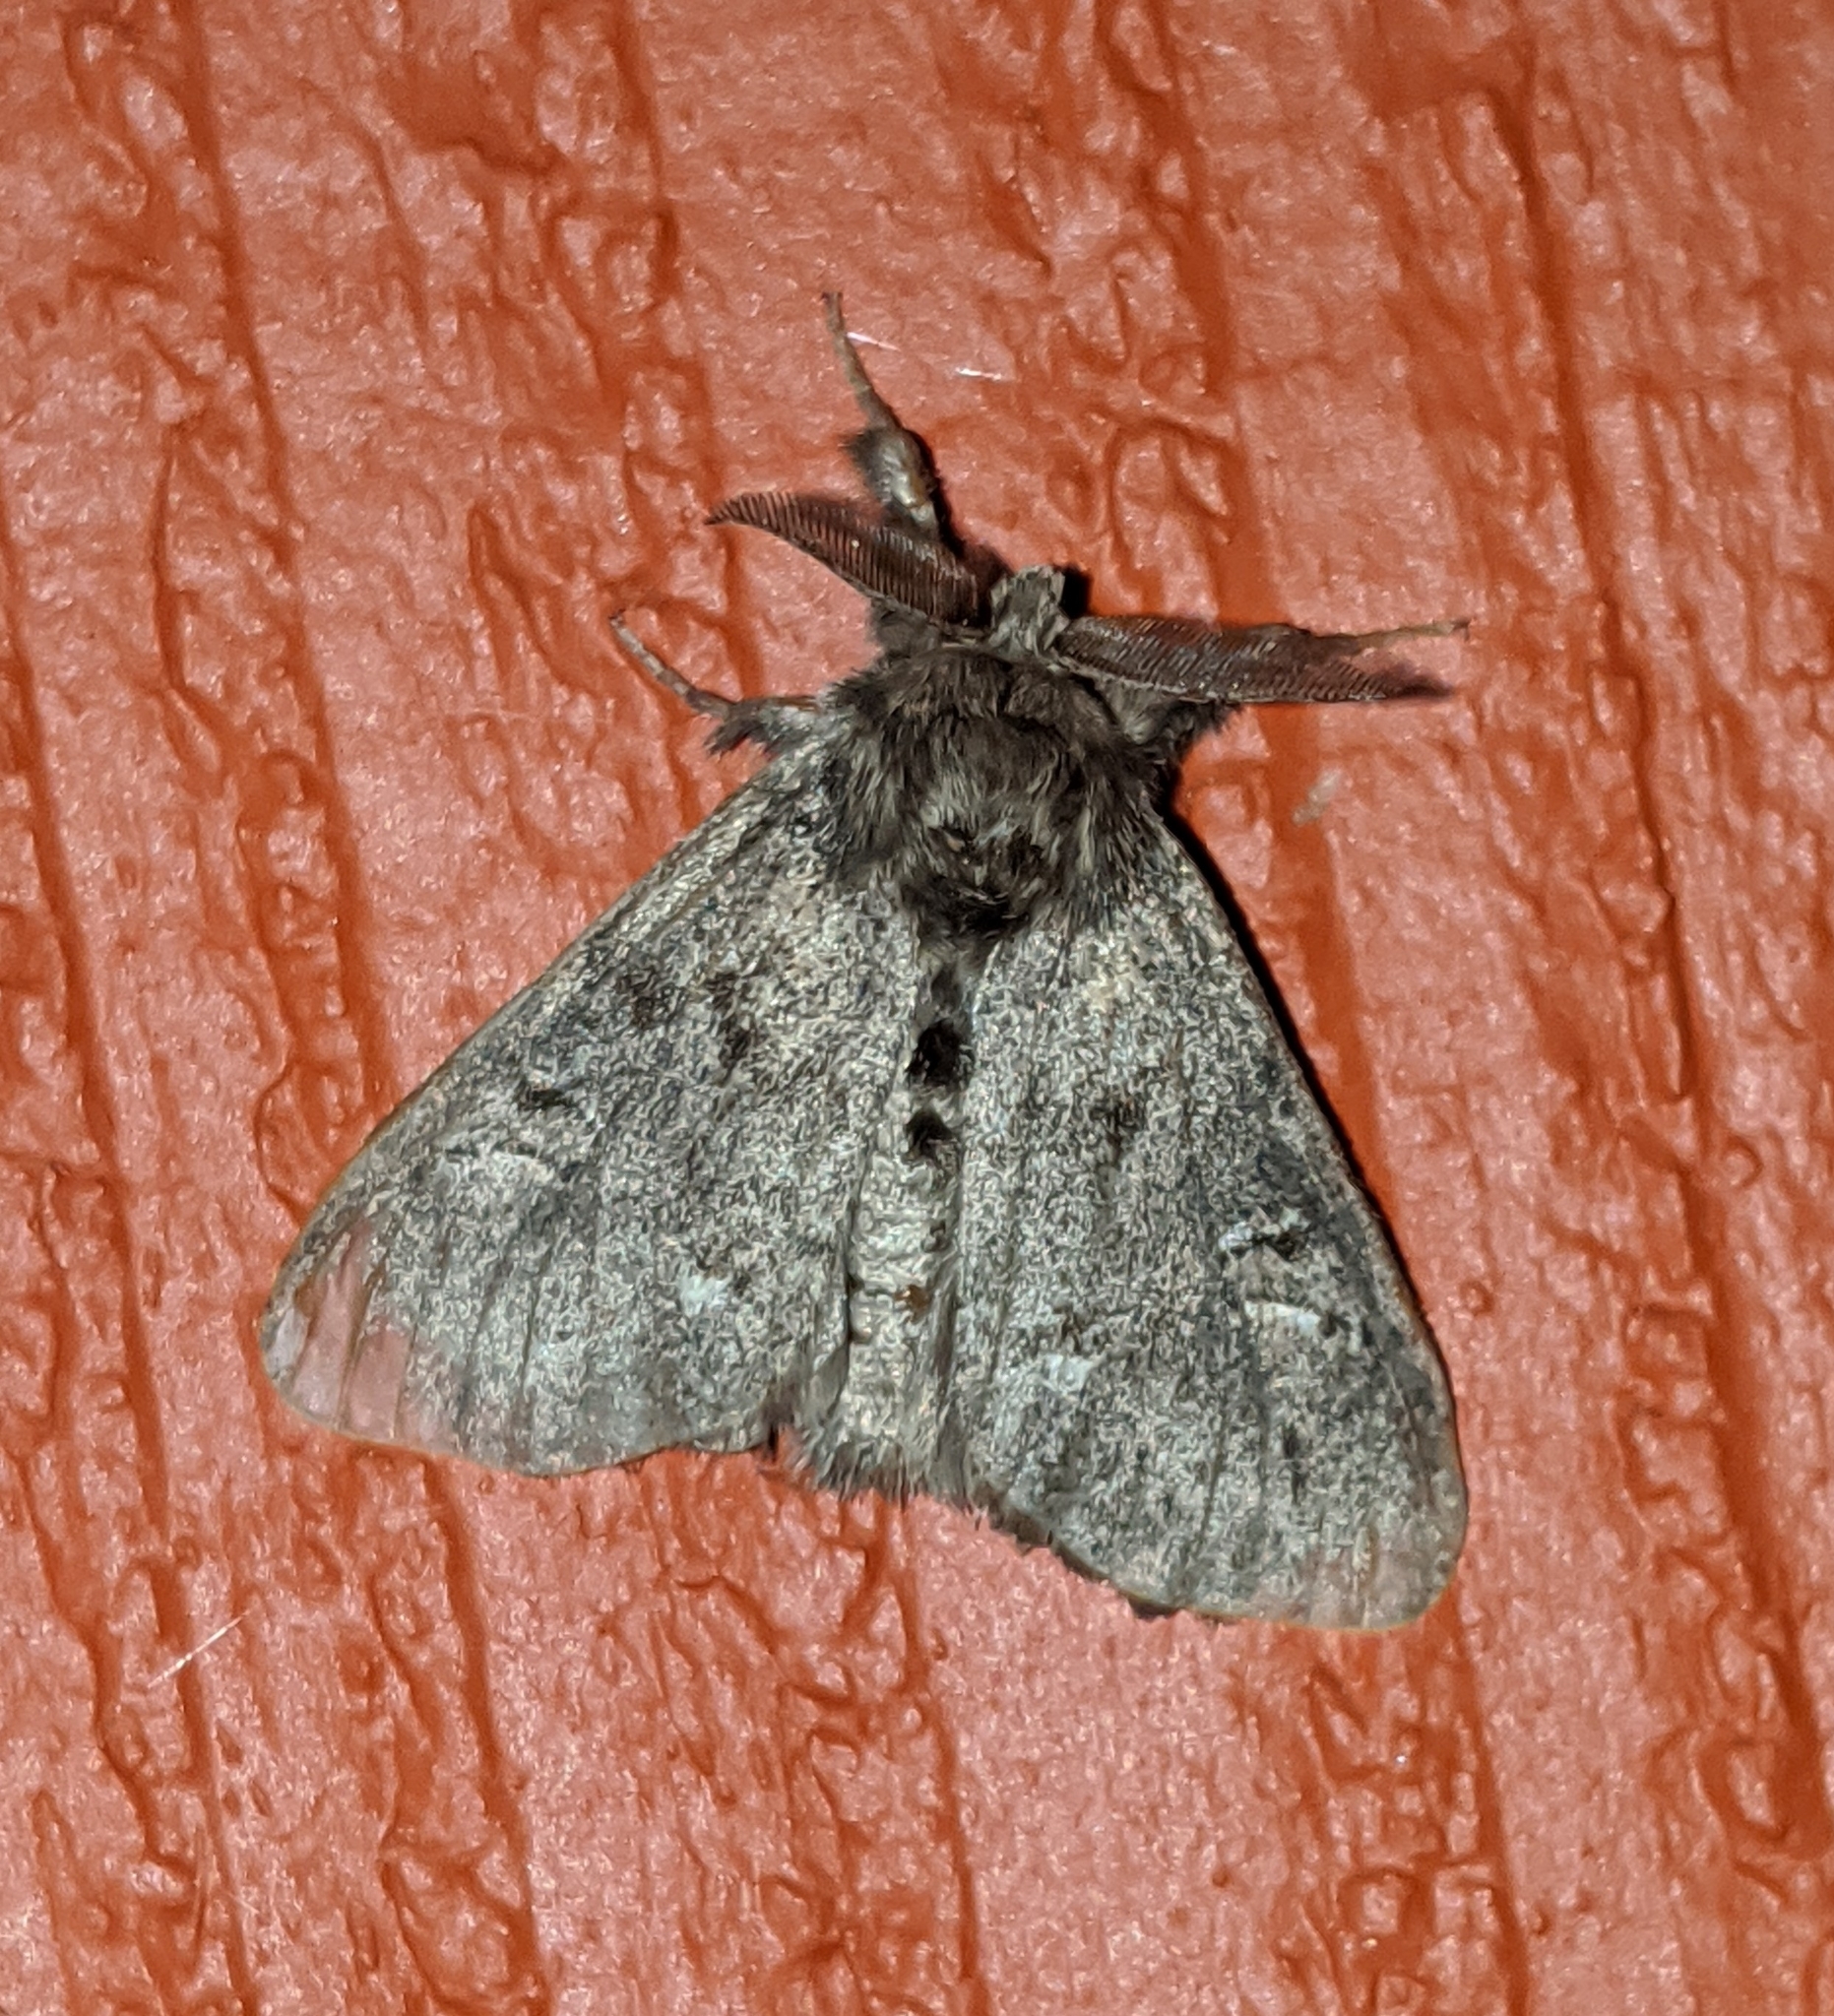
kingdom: Animalia
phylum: Arthropoda
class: Insecta
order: Lepidoptera
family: Erebidae
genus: Dasychira
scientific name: Dasychira grisefacta
